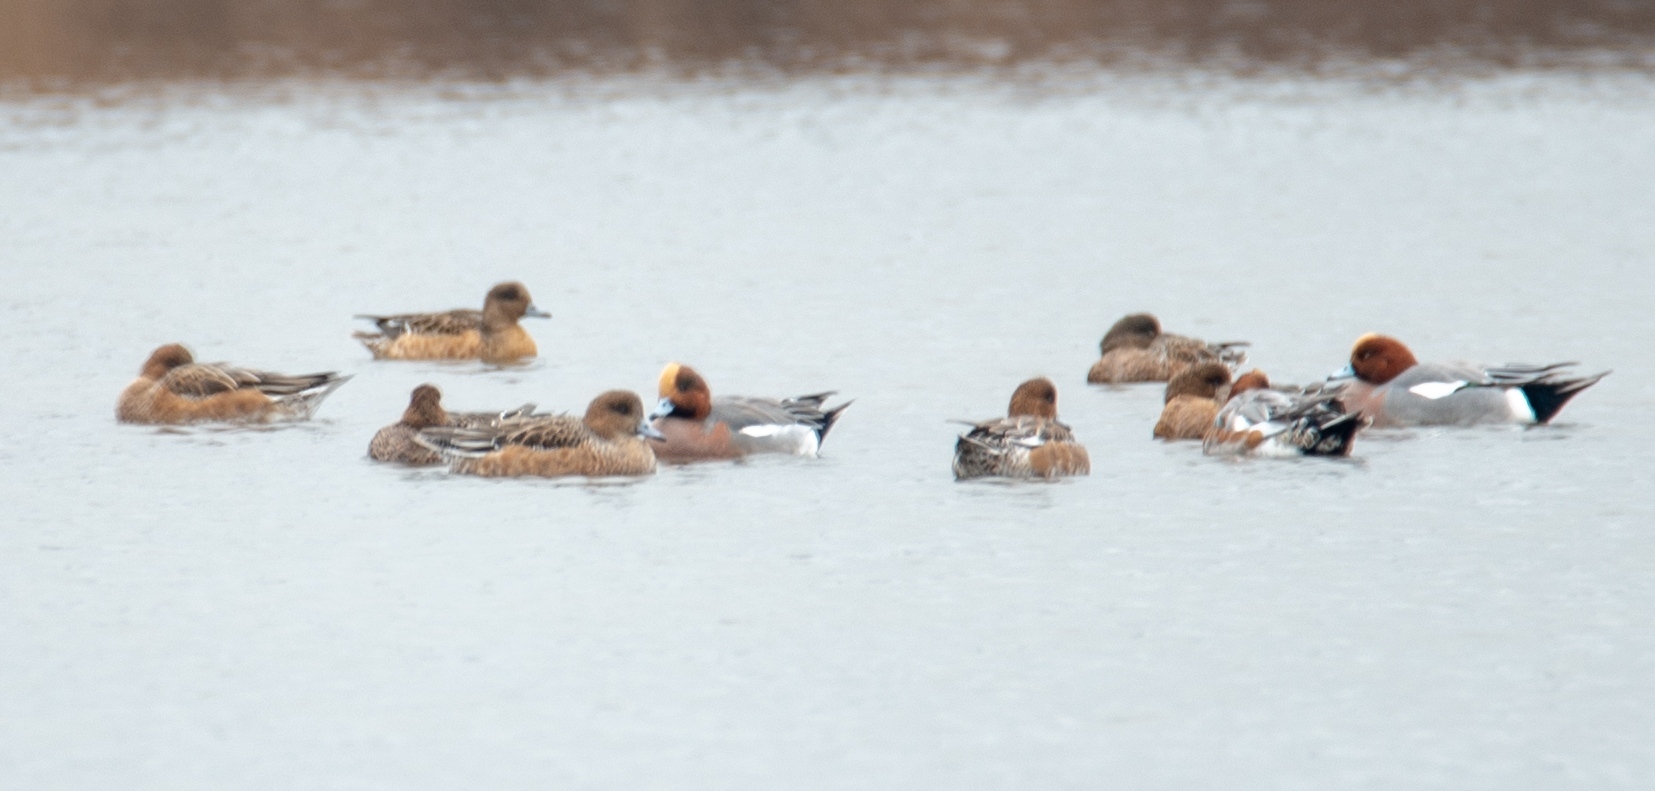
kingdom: Animalia
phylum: Chordata
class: Aves
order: Anseriformes
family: Anatidae
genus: Mareca
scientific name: Mareca penelope
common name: Eurasian wigeon
